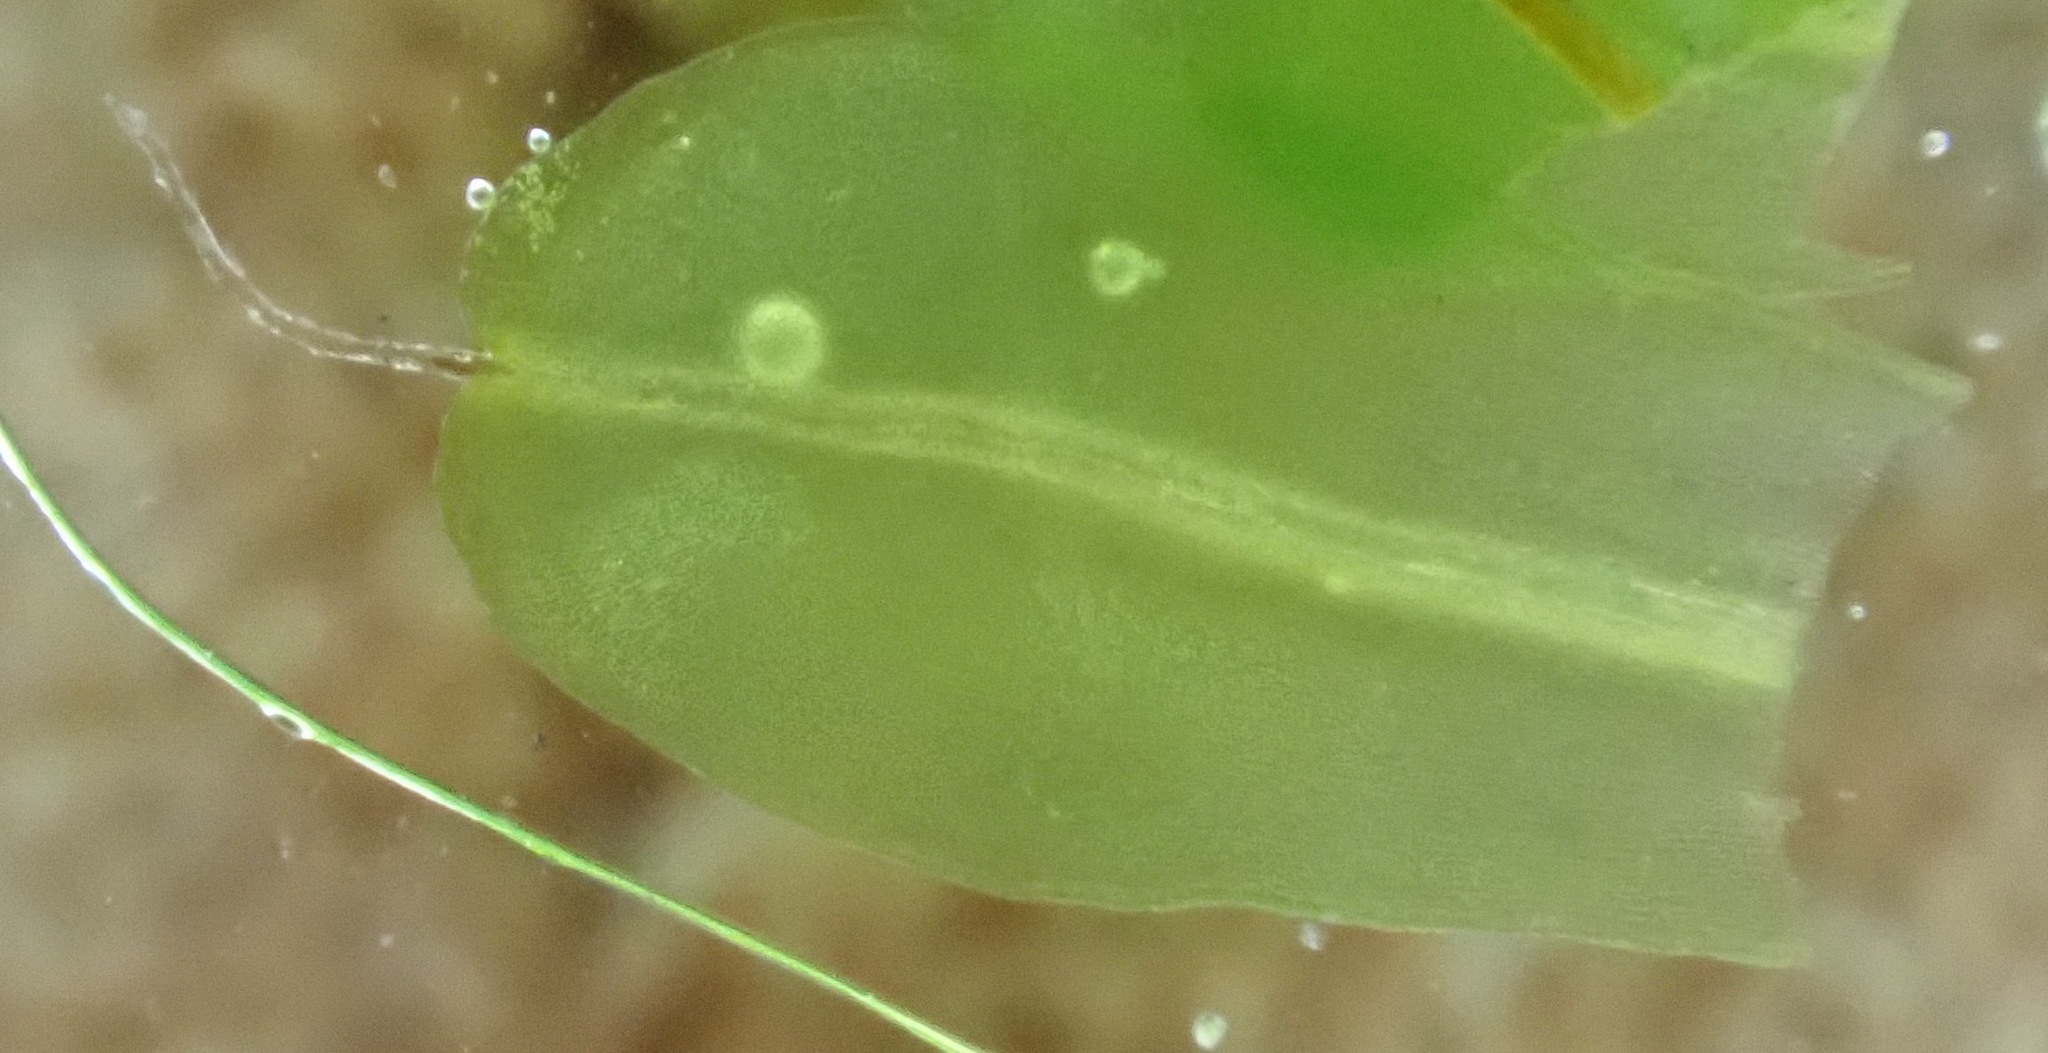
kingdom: Plantae
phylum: Bryophyta
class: Bryopsida
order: Pottiales
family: Pottiaceae
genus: Syntrichia
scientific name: Syntrichia virescens
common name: Lesser screw-moss
